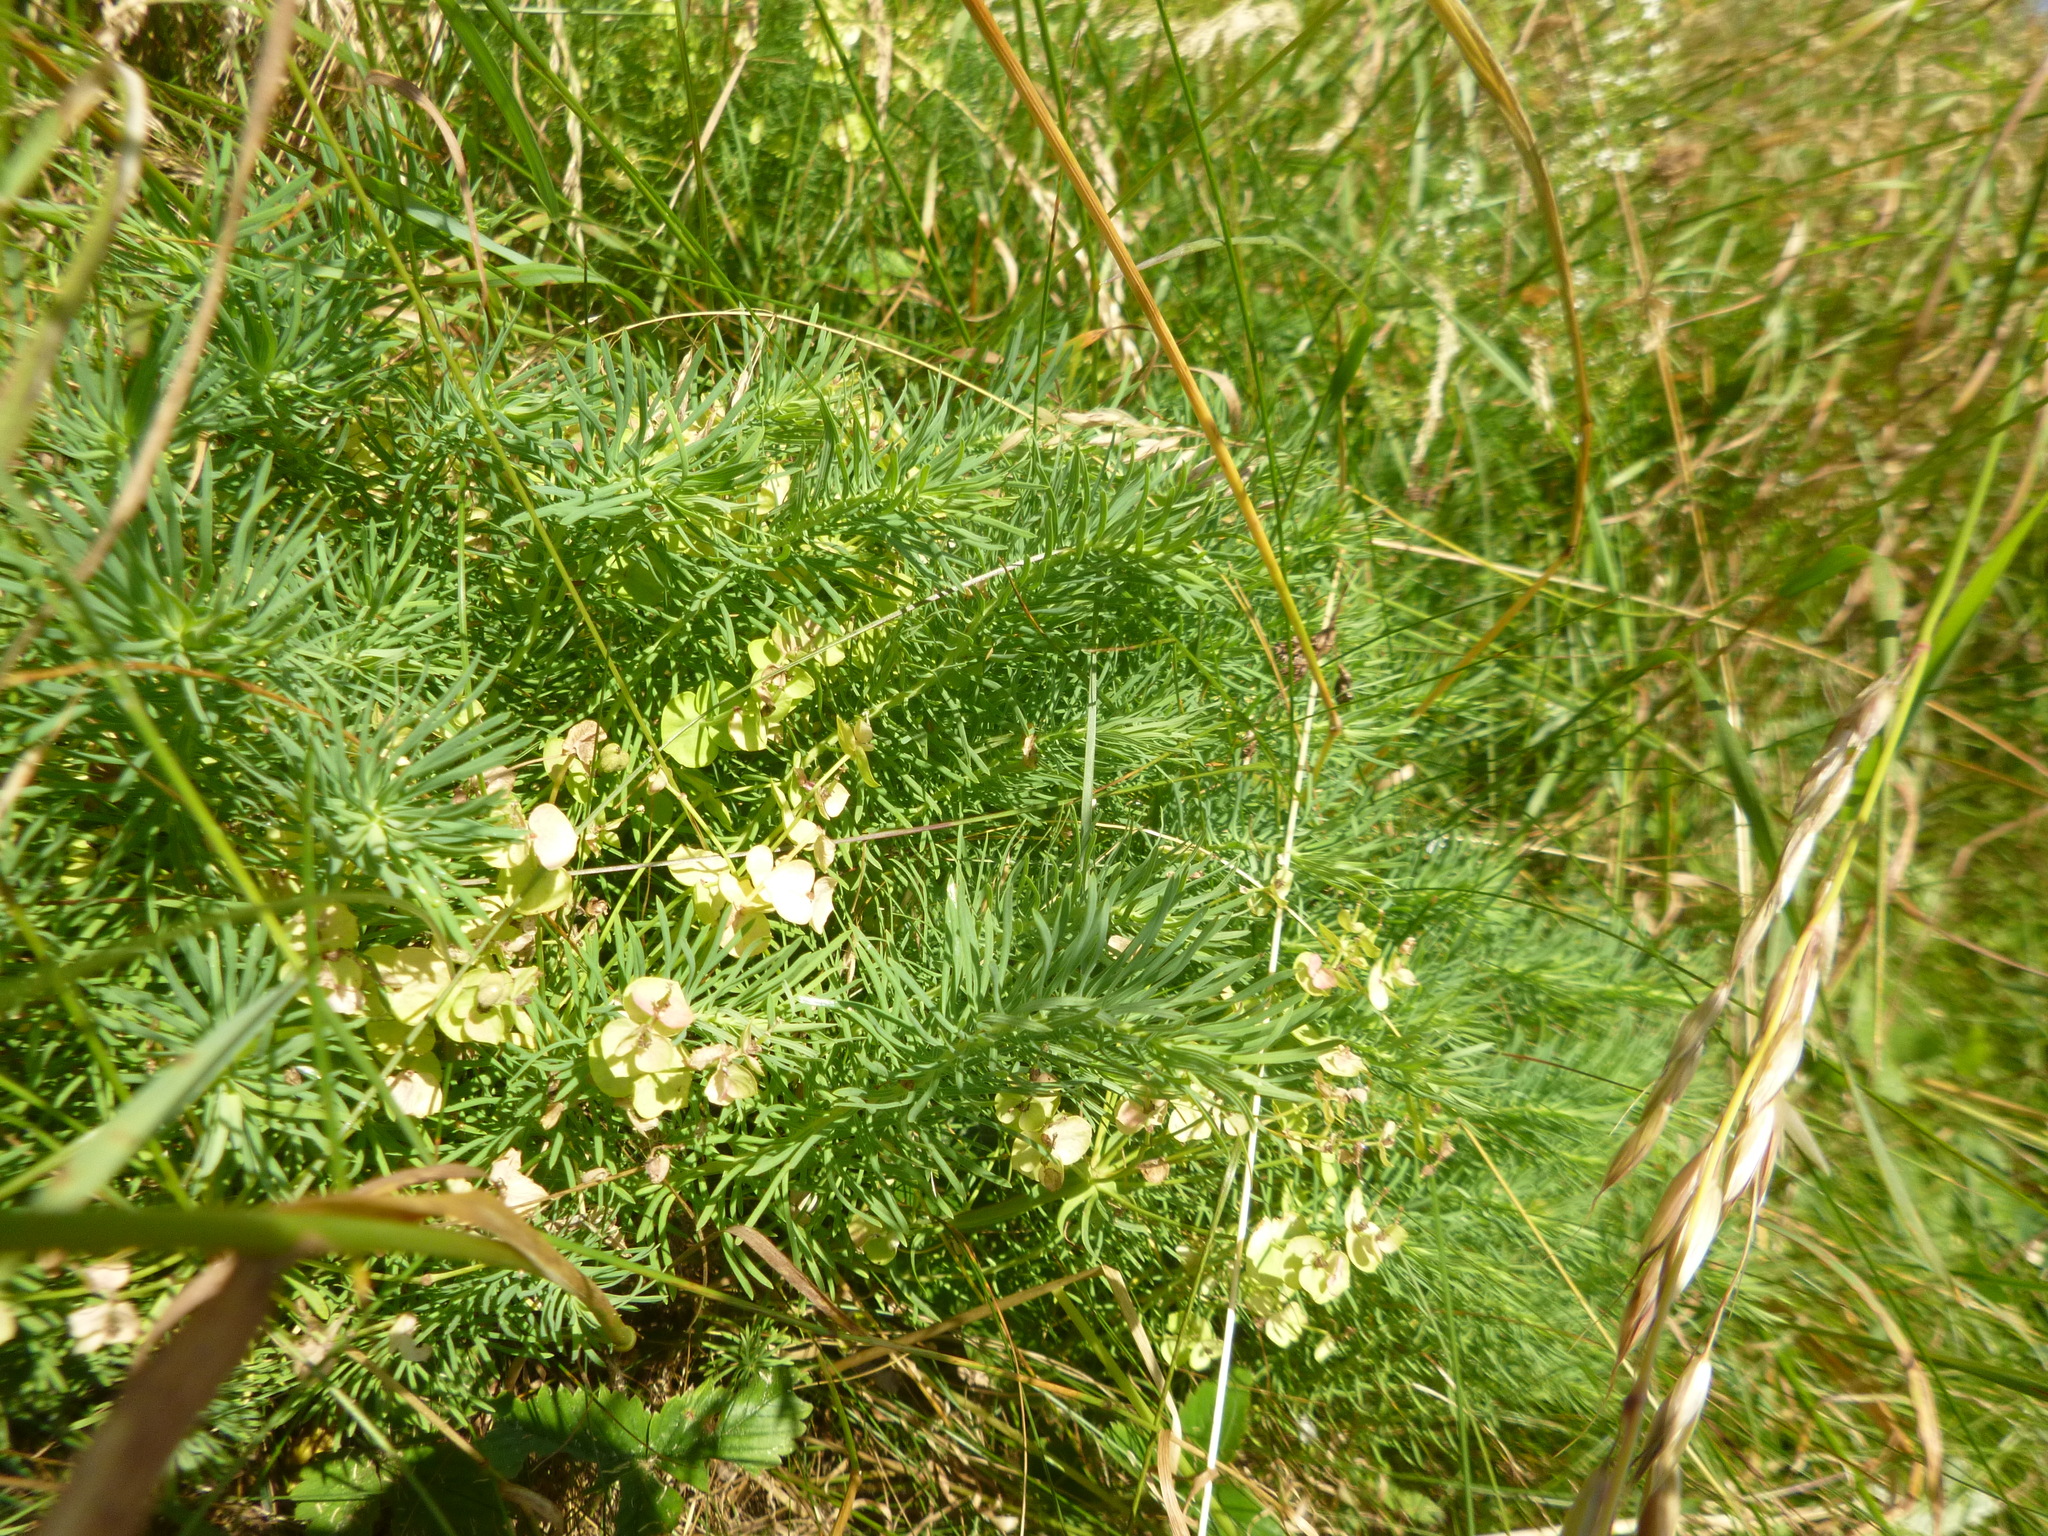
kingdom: Plantae
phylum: Tracheophyta
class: Magnoliopsida
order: Malpighiales
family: Euphorbiaceae
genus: Euphorbia
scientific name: Euphorbia cyparissias
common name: Cypress spurge
